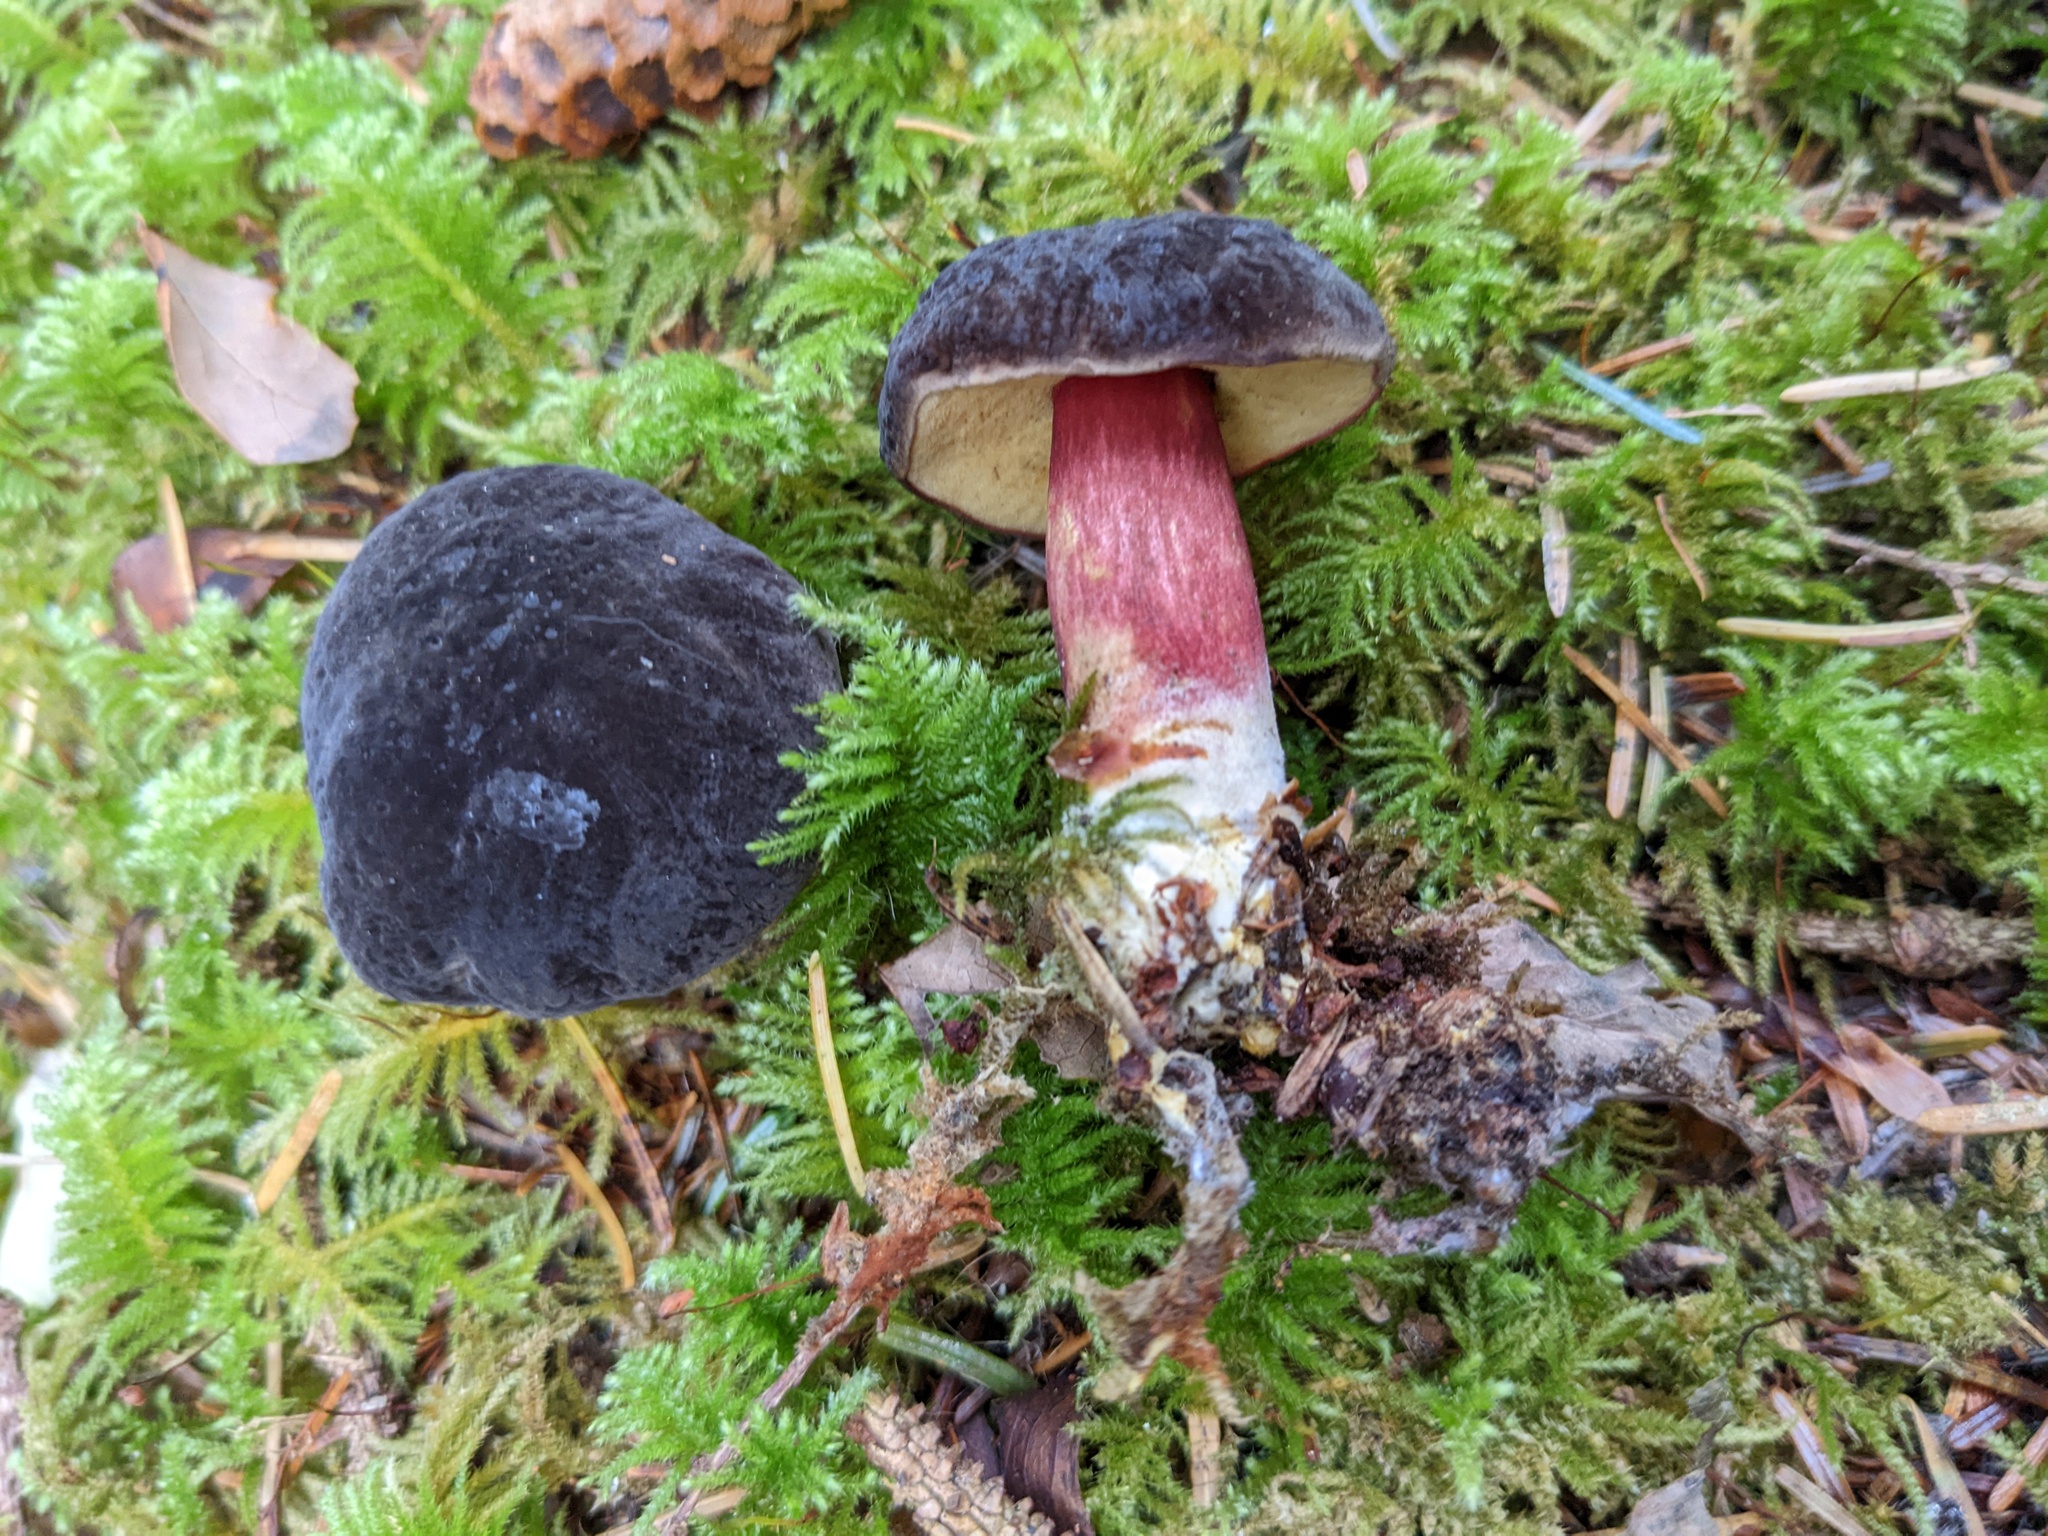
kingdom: Fungi
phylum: Basidiomycota
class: Agaricomycetes
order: Boletales
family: Boletaceae
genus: Xerocomellus
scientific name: Xerocomellus atropurpureus
